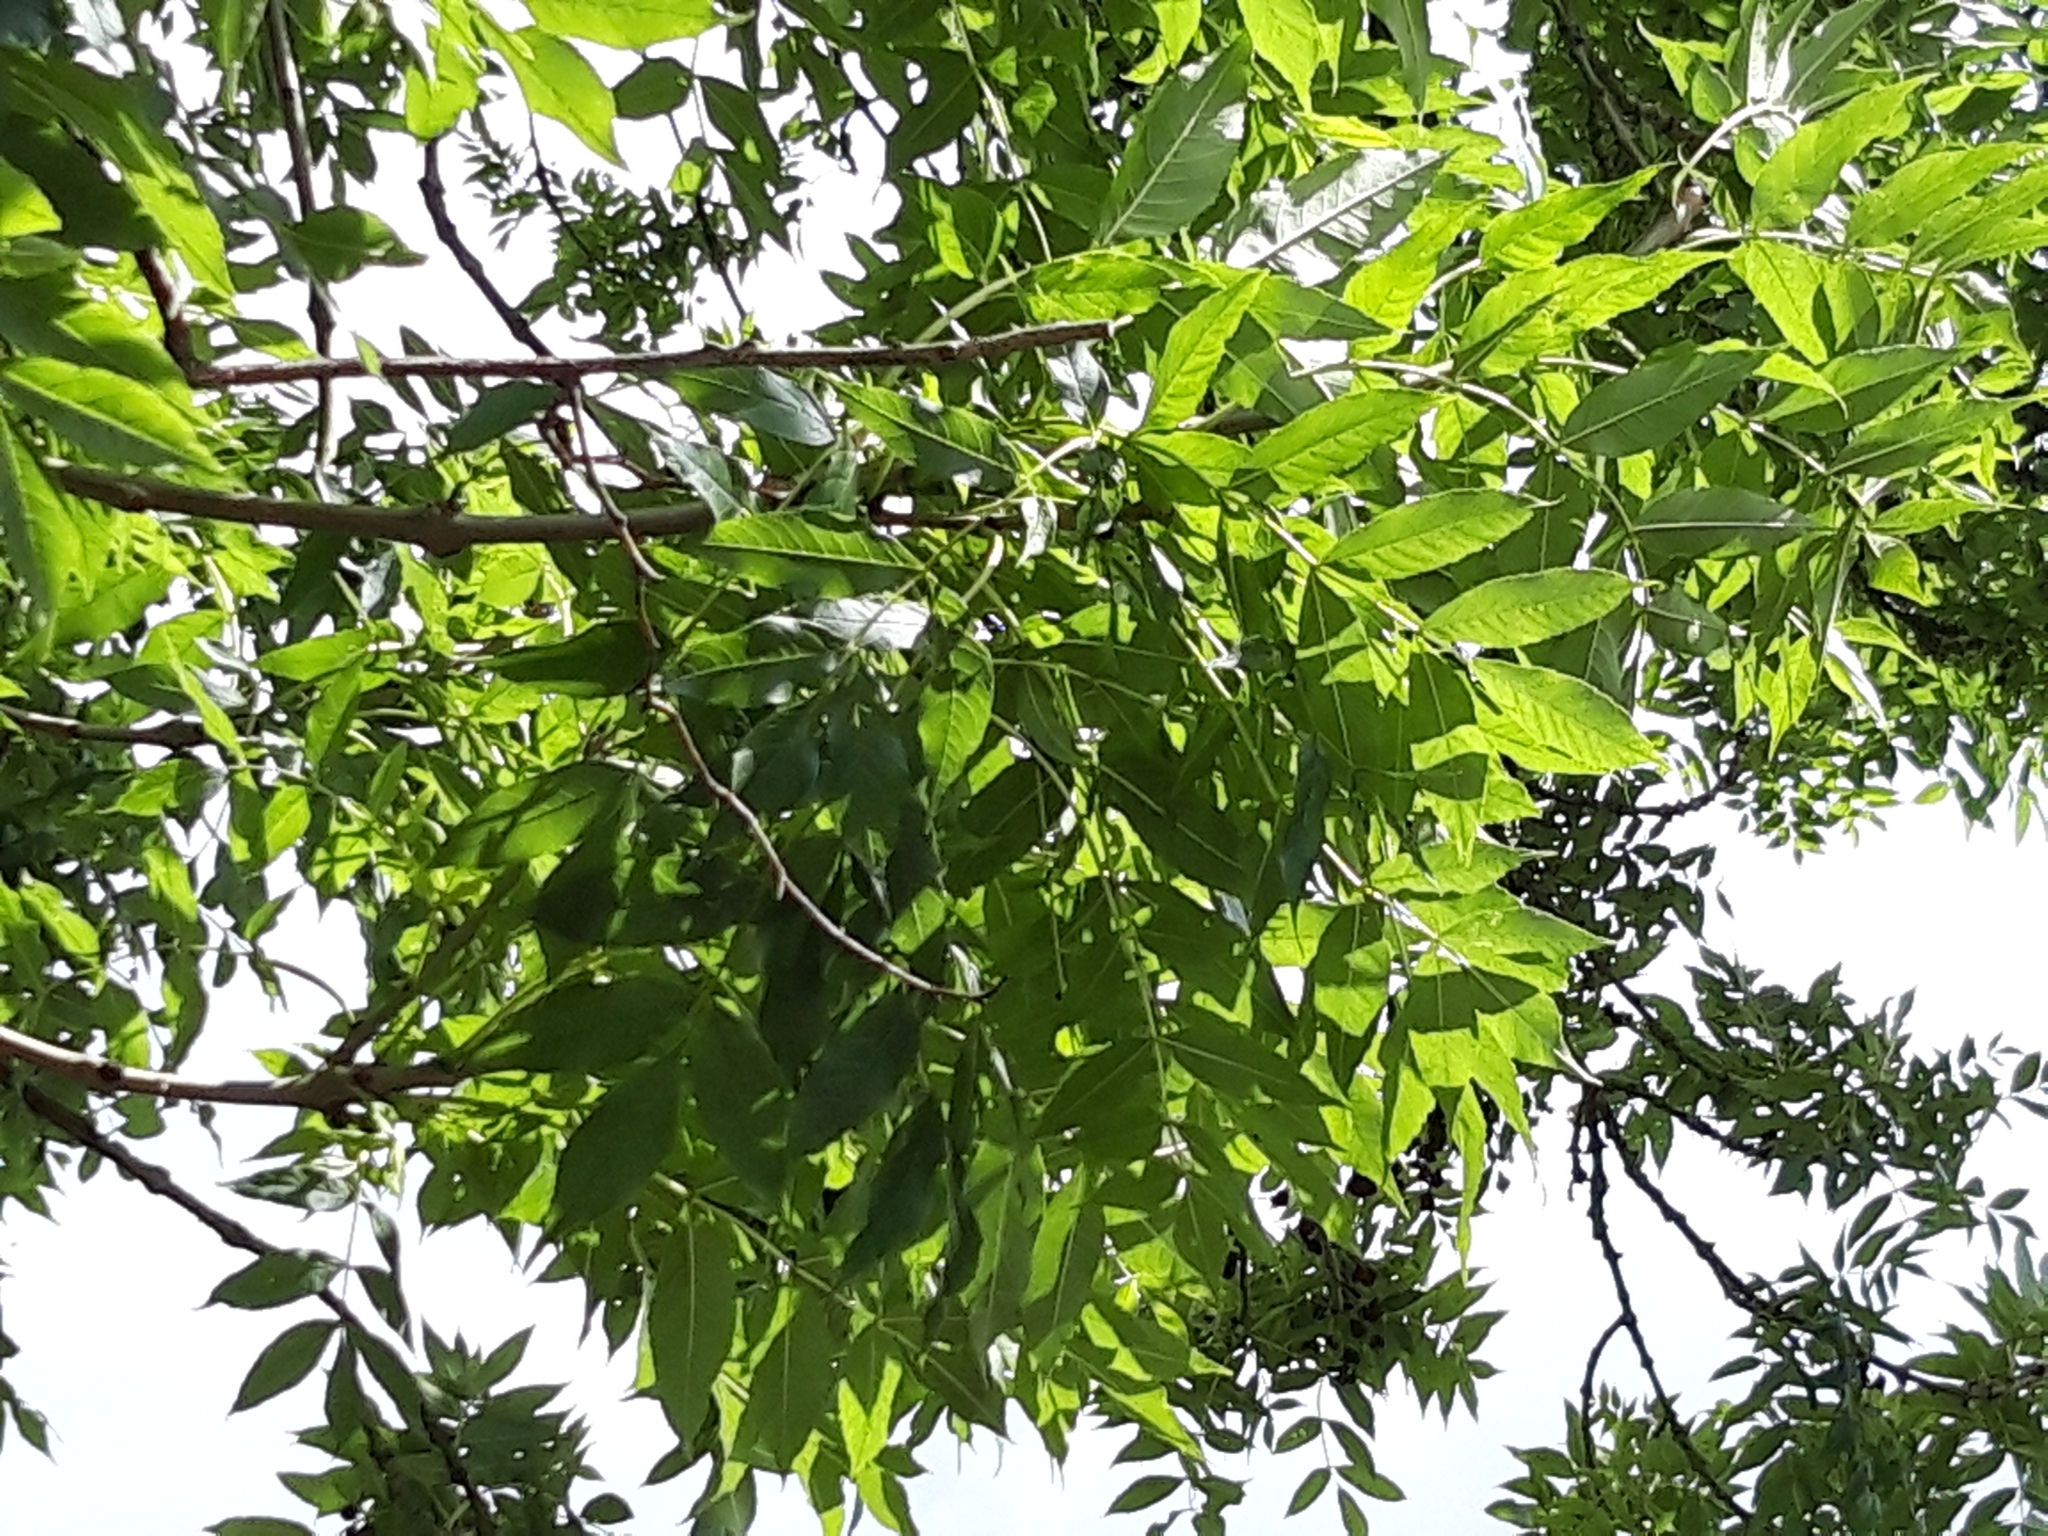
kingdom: Plantae
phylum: Tracheophyta
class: Magnoliopsida
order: Lamiales
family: Oleaceae
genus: Fraxinus
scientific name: Fraxinus excelsior
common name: European ash
